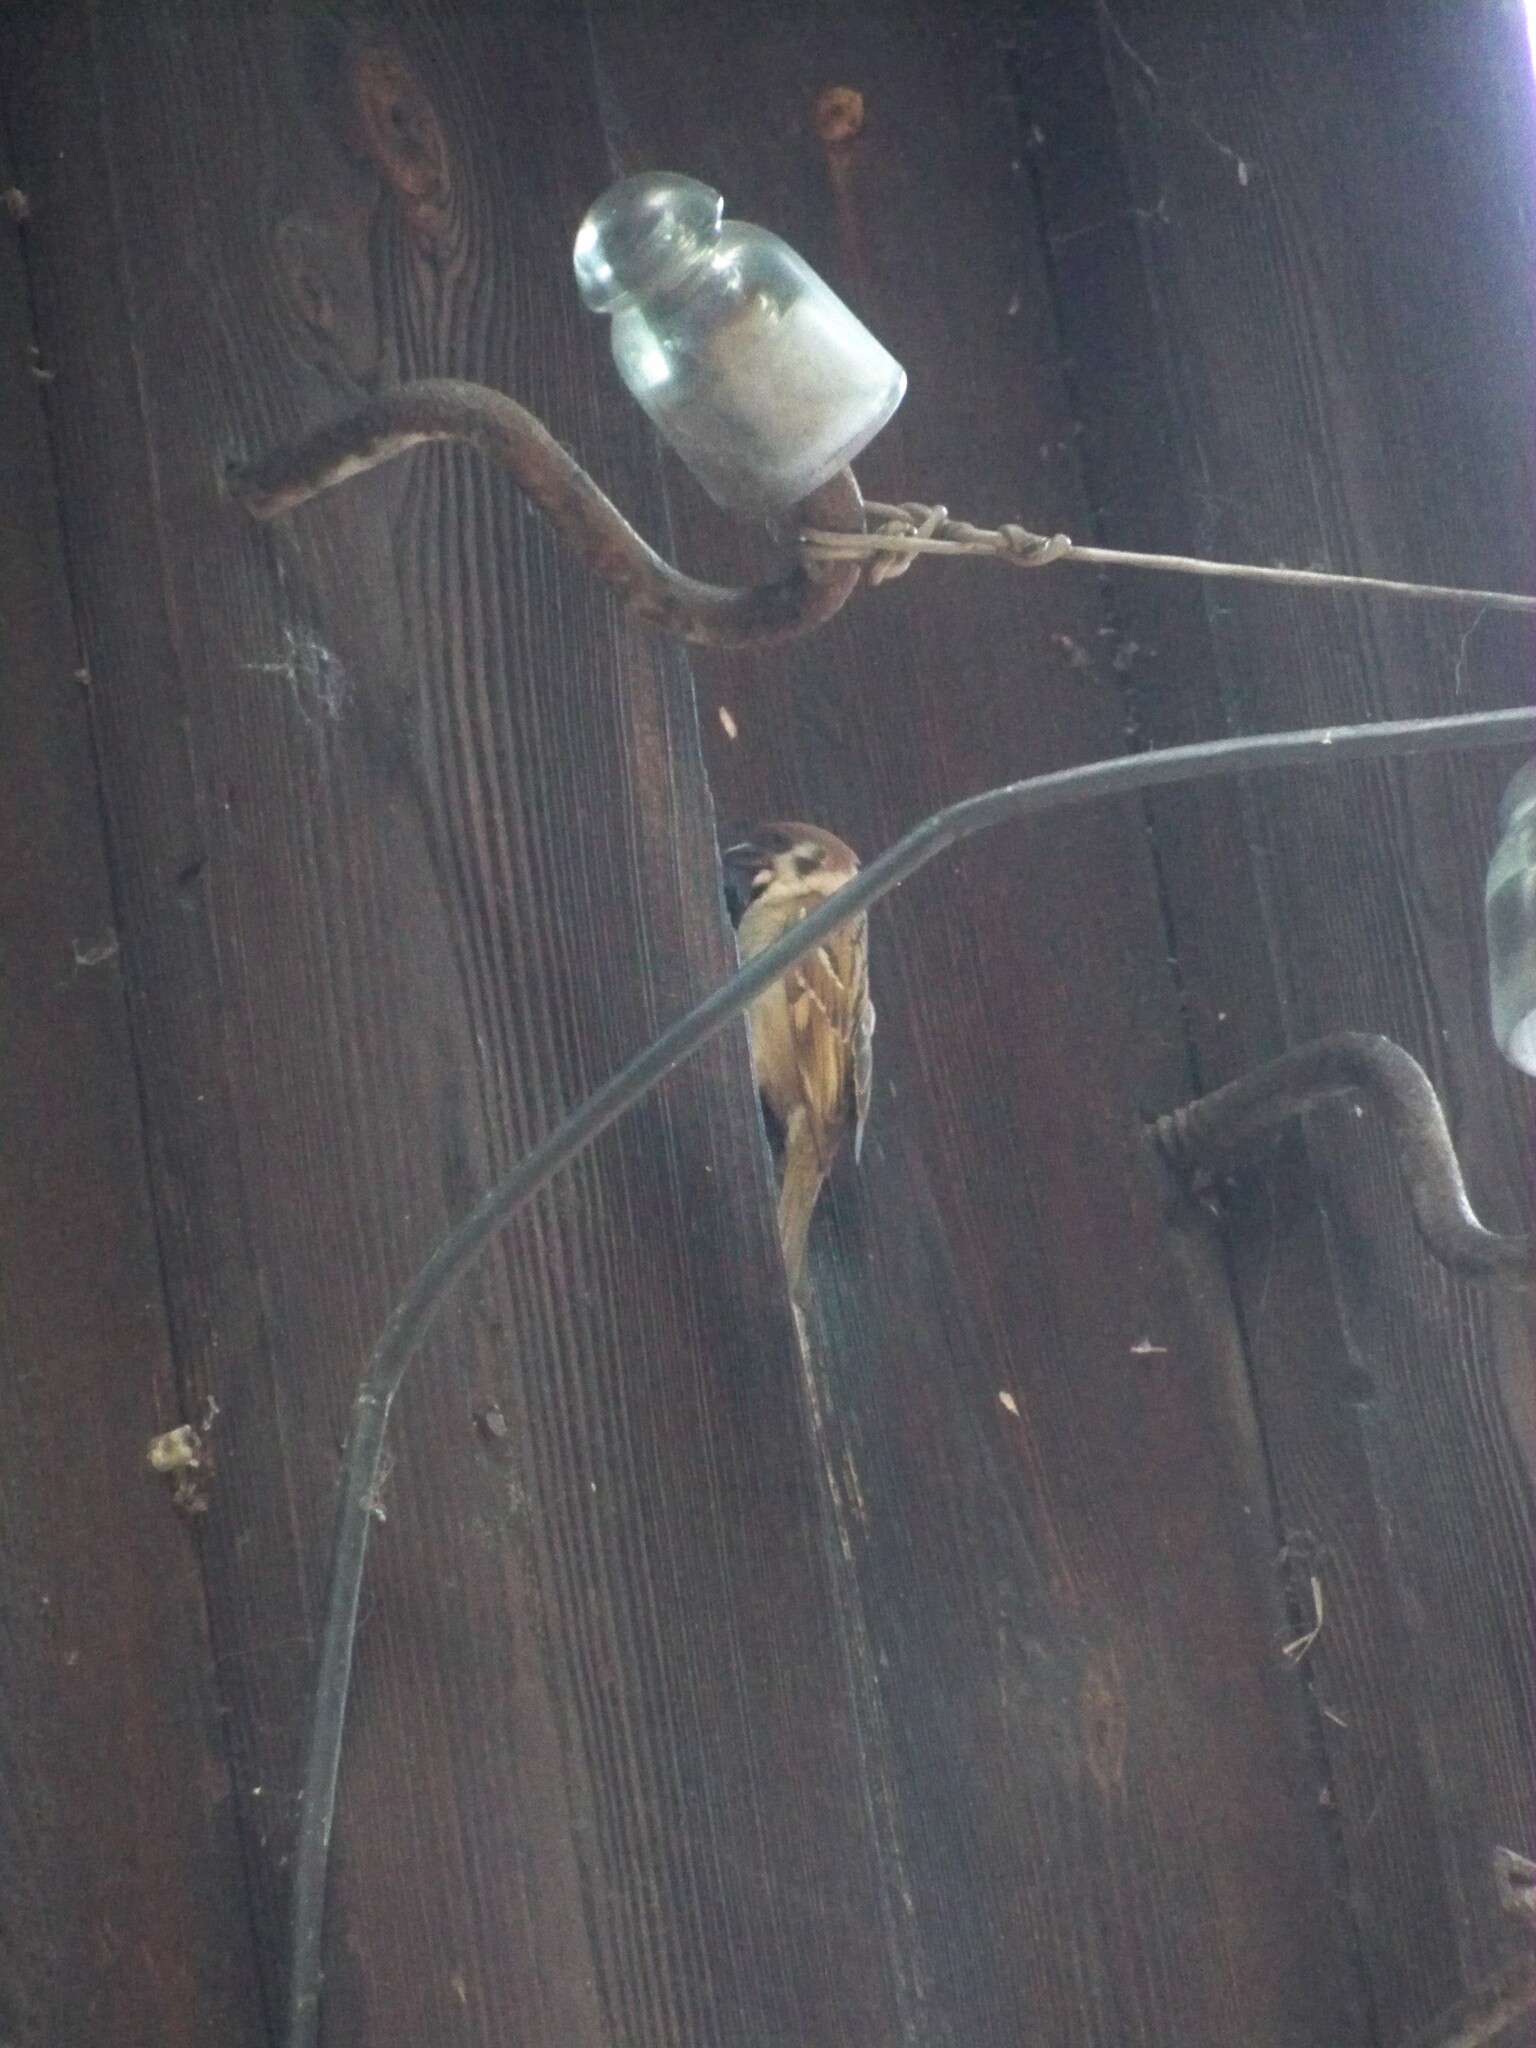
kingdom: Animalia
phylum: Chordata
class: Aves
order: Passeriformes
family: Passeridae
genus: Passer
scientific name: Passer montanus
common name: Eurasian tree sparrow
